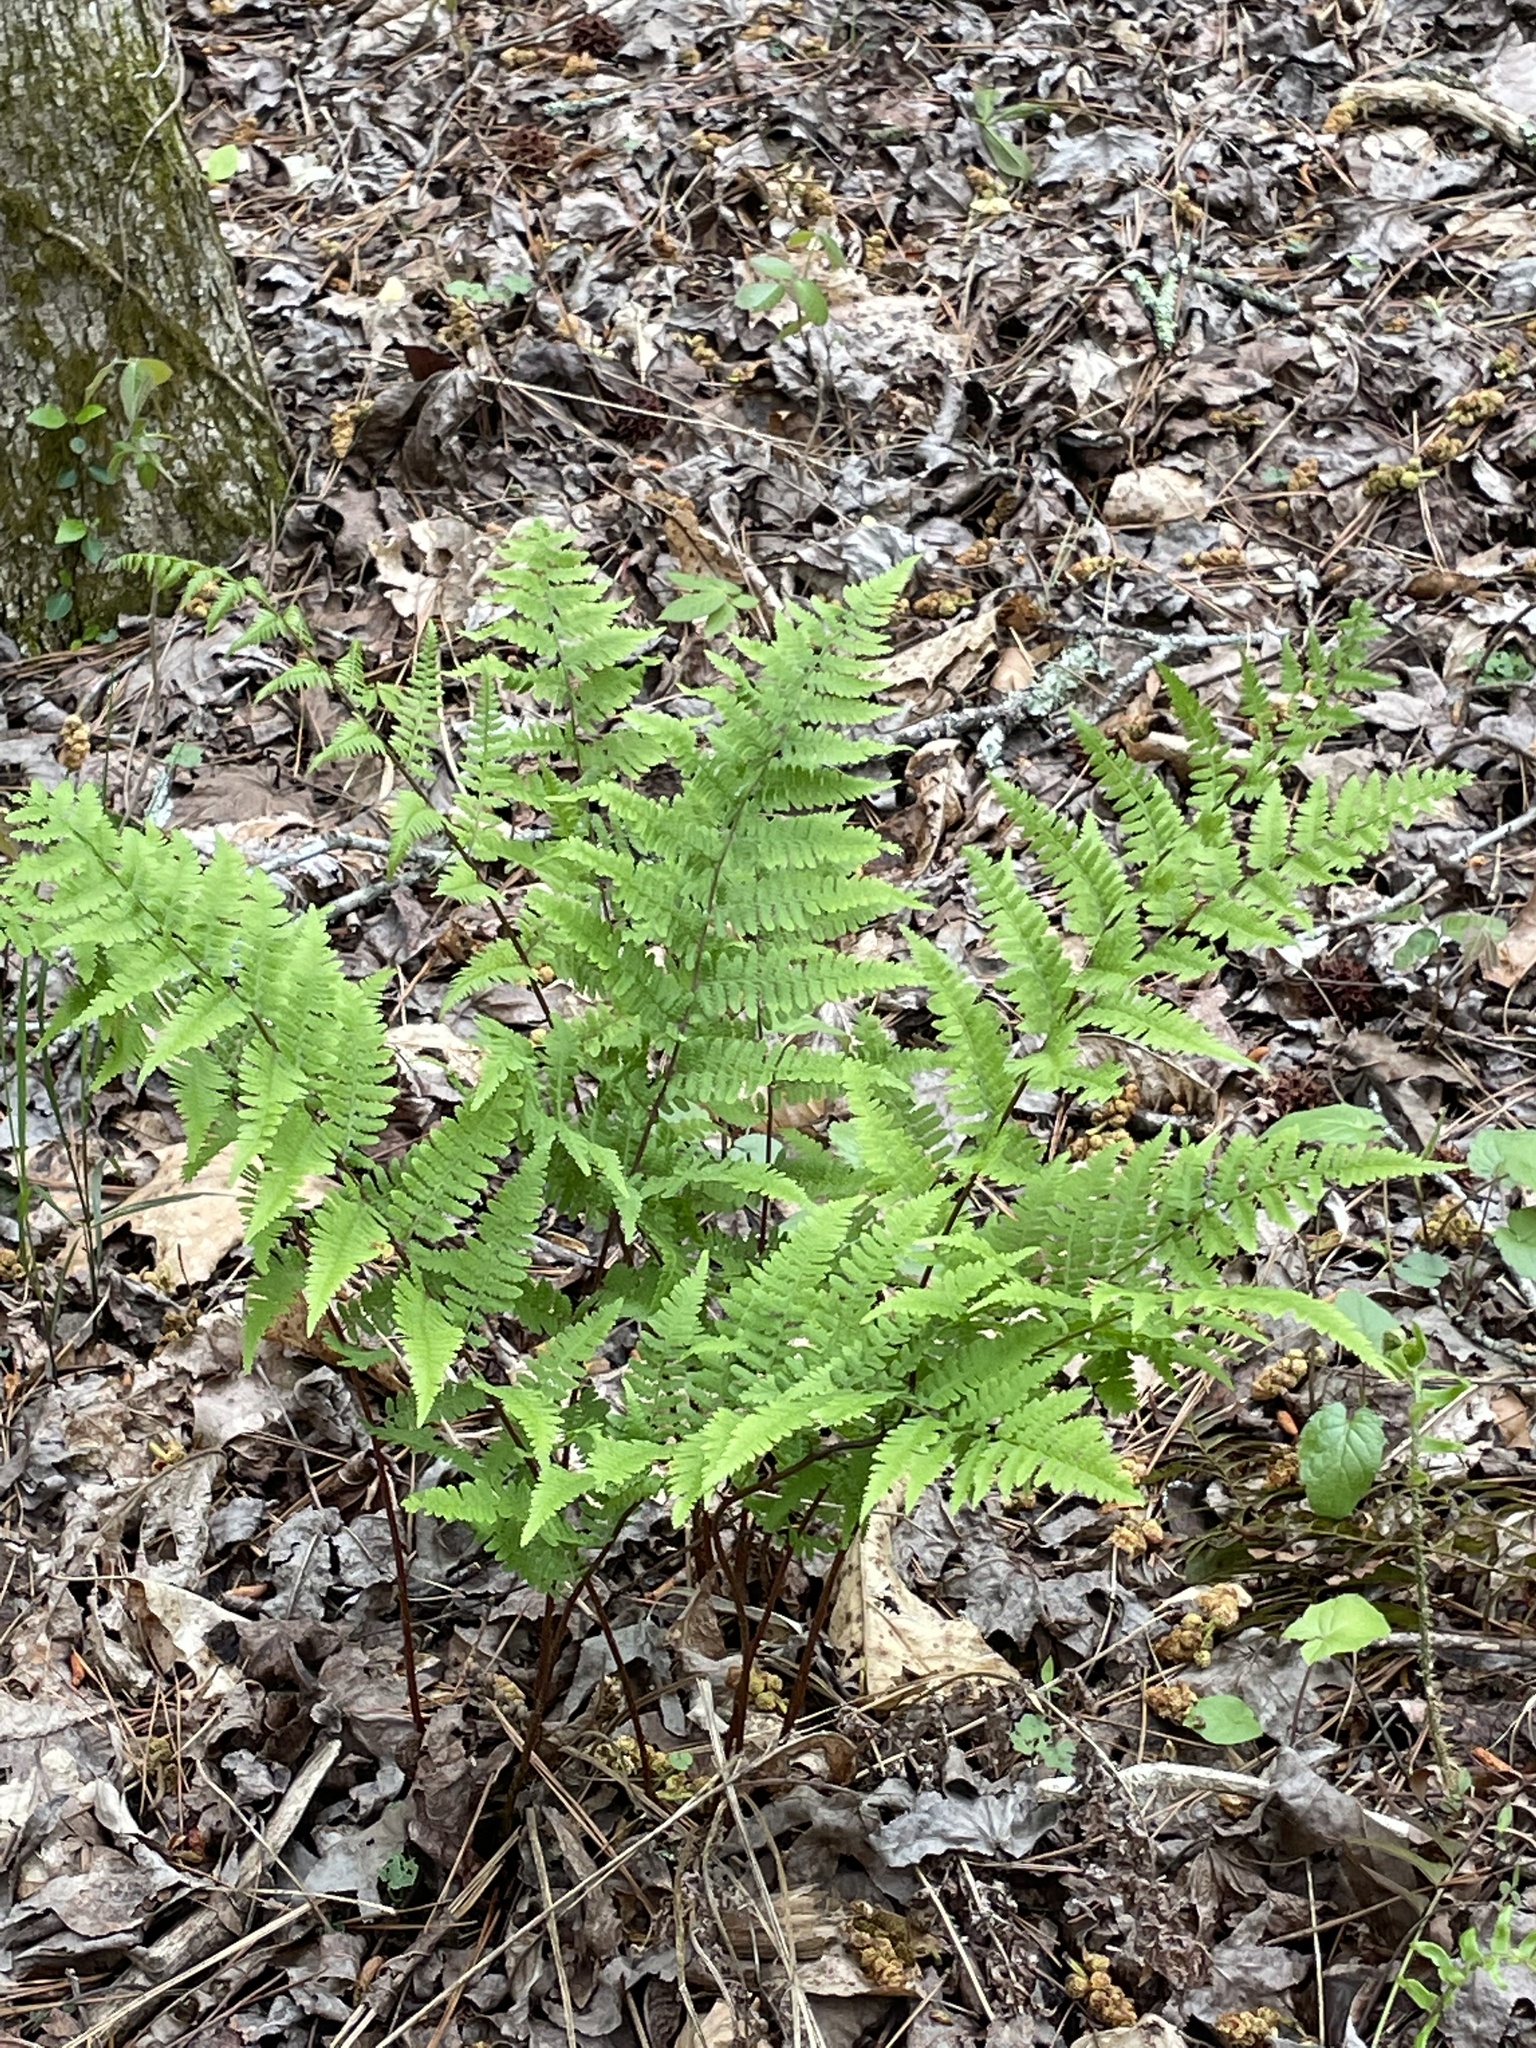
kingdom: Plantae
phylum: Tracheophyta
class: Polypodiopsida
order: Polypodiales
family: Athyriaceae
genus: Athyrium
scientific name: Athyrium asplenioides
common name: Southern lady fern
